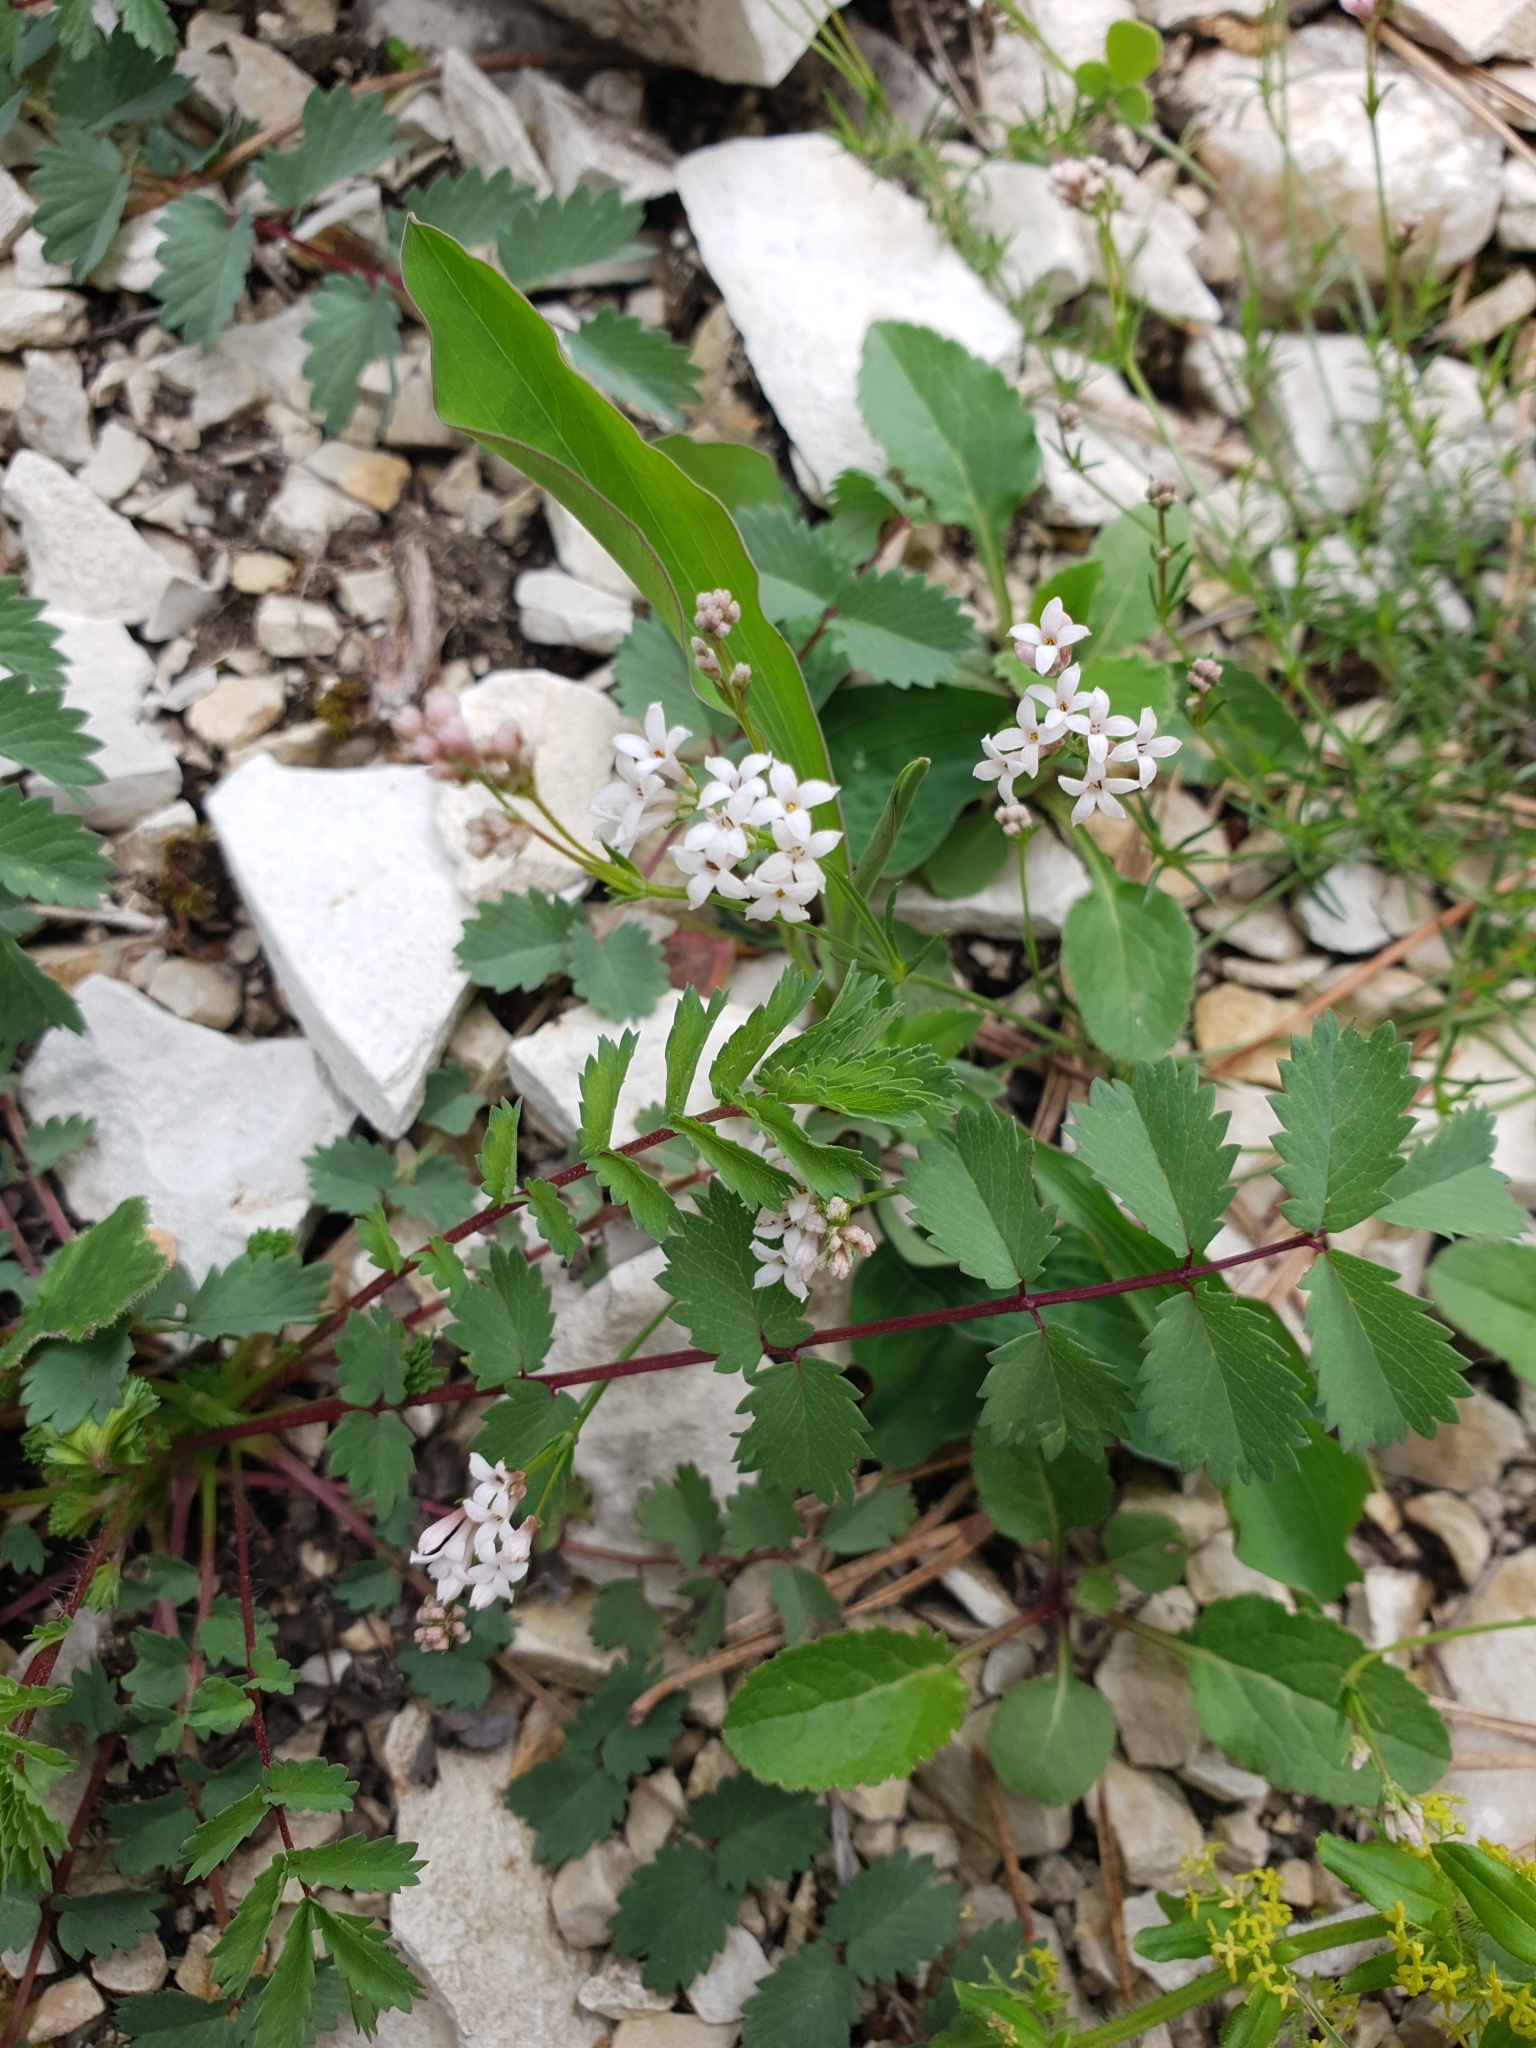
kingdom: Plantae
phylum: Tracheophyta
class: Magnoliopsida
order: Rosales
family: Rosaceae
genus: Poterium
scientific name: Poterium sanguisorba
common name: Salad burnet
